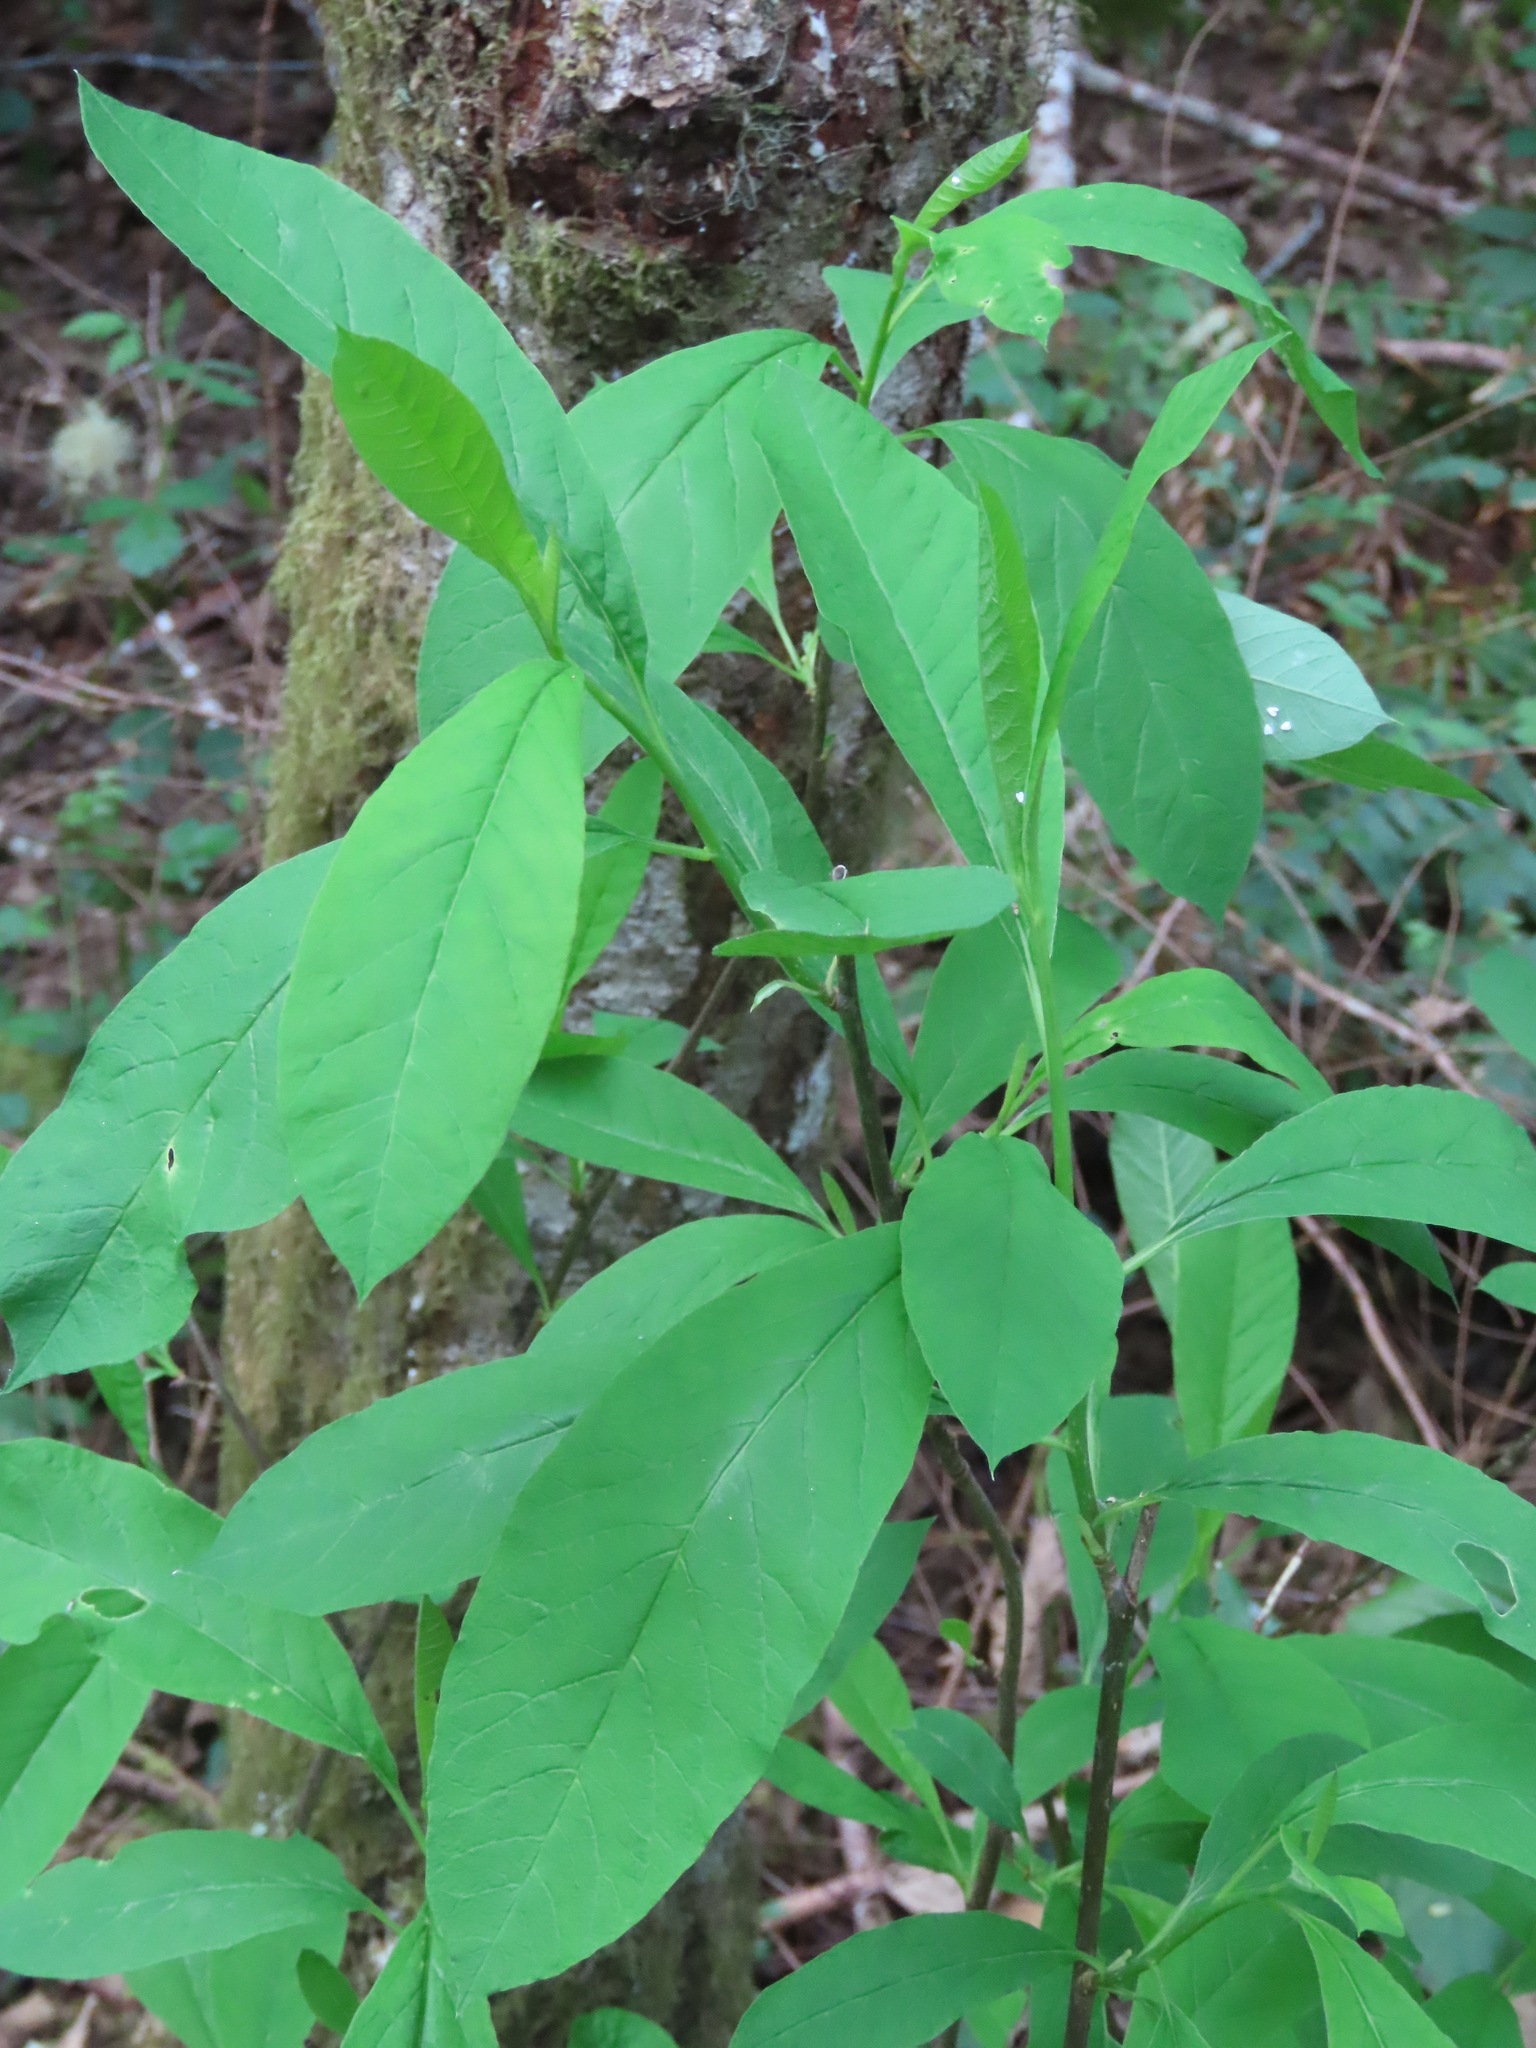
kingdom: Plantae
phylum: Tracheophyta
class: Magnoliopsida
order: Rosales
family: Rosaceae
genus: Oemleria
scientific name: Oemleria cerasiformis
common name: Osoberry
